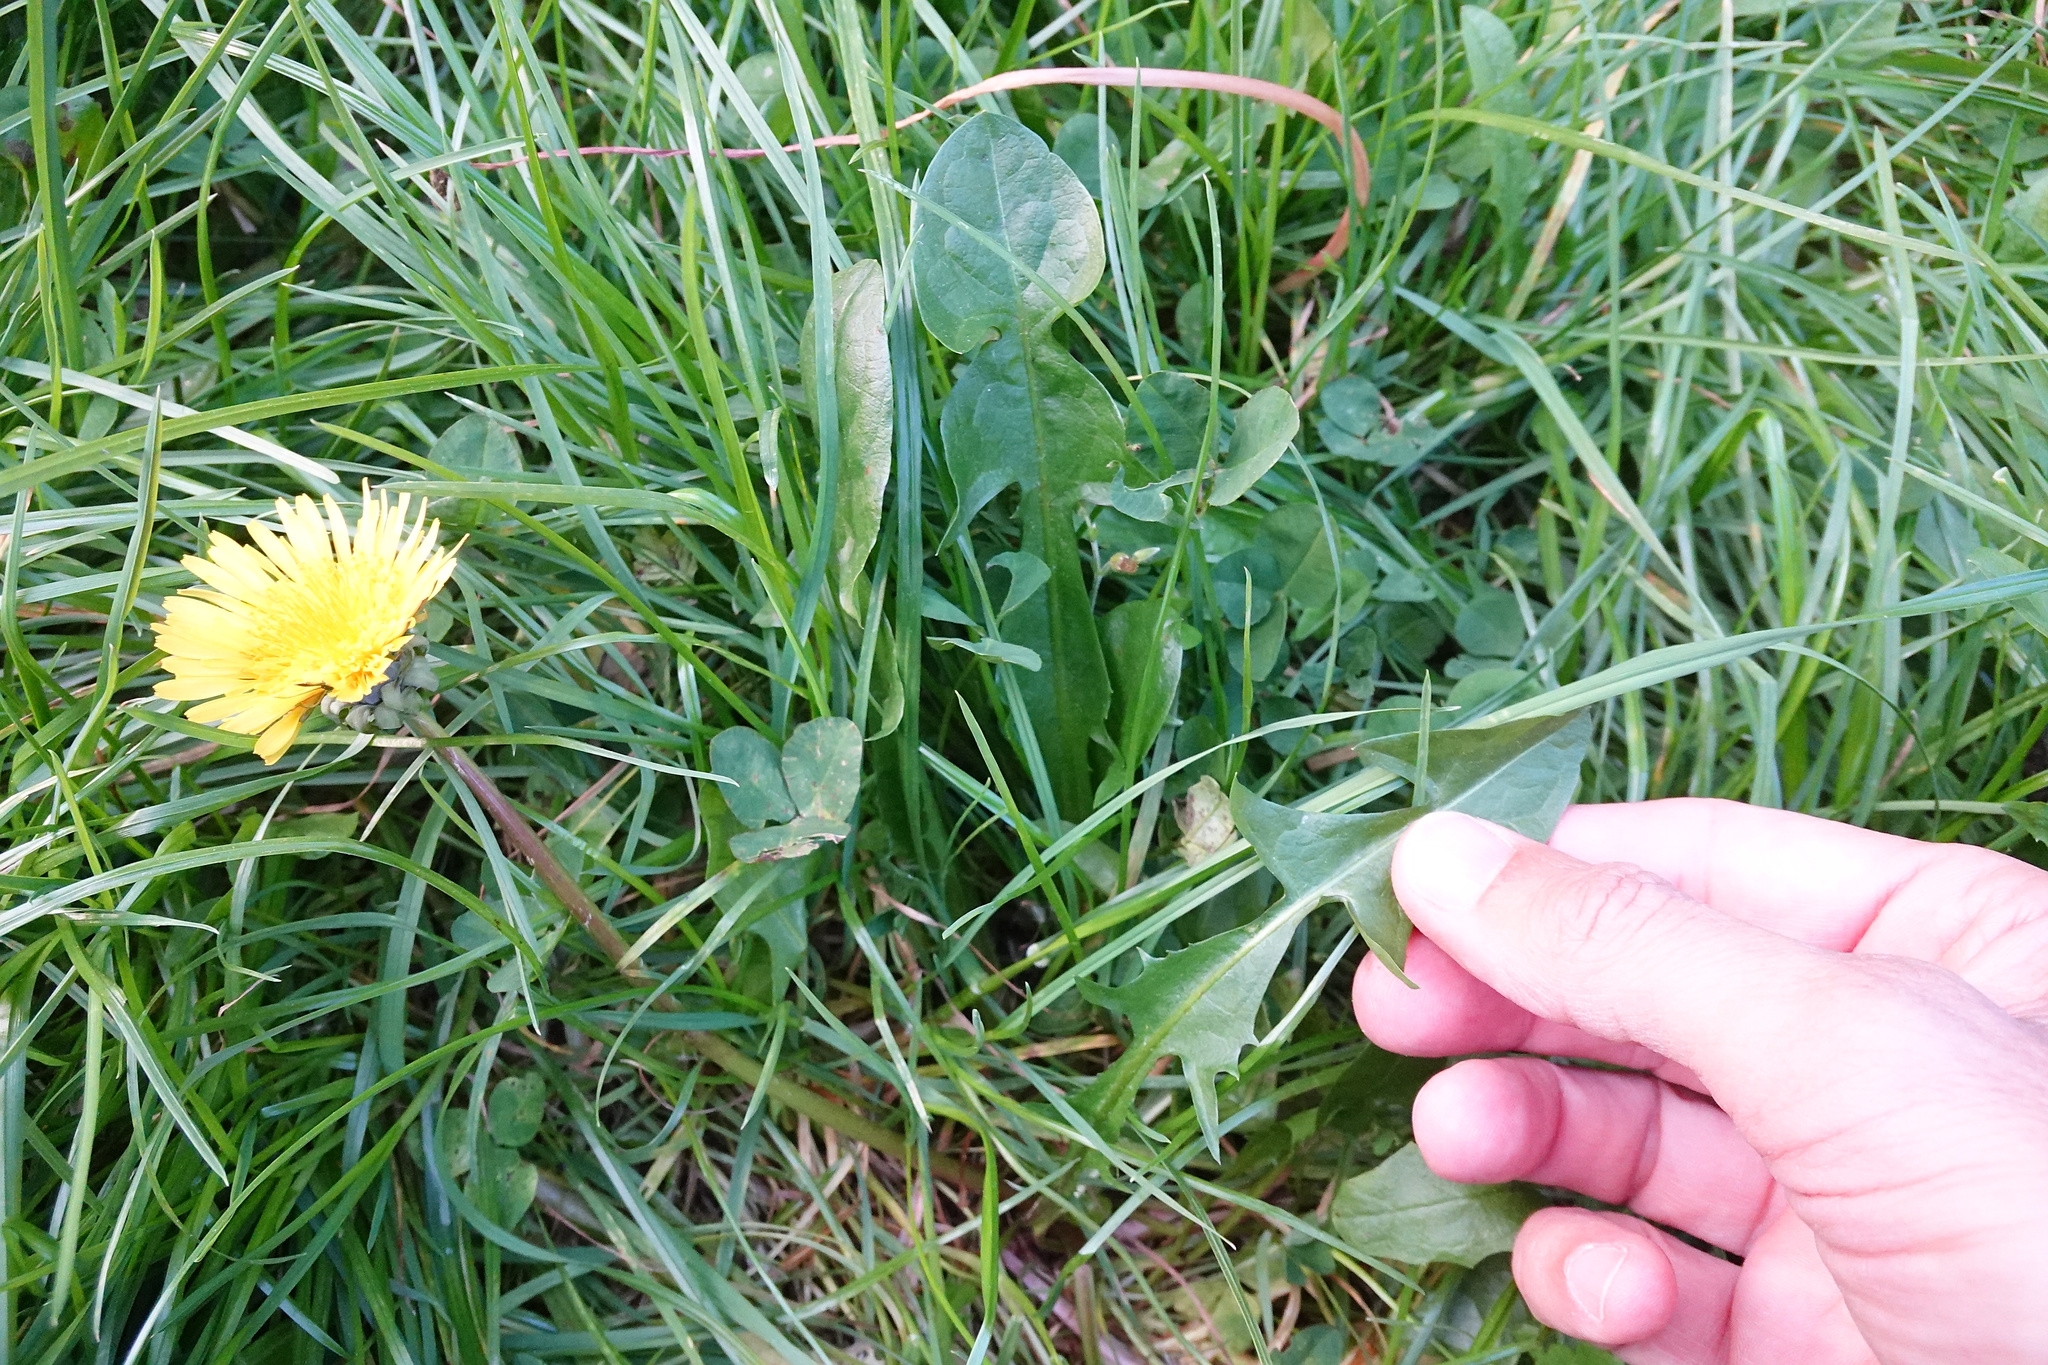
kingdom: Plantae
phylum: Tracheophyta
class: Magnoliopsida
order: Asterales
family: Asteraceae
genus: Taraxacum
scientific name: Taraxacum officinale
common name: Common dandelion
